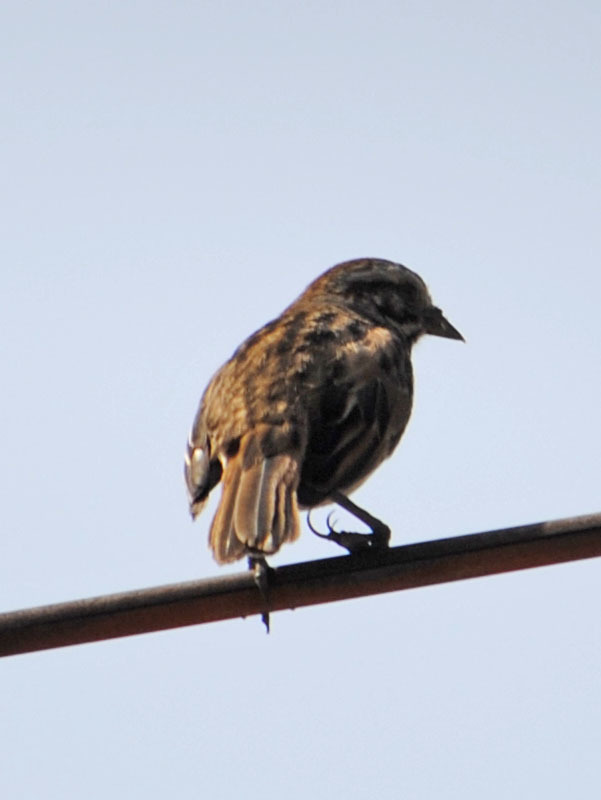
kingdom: Animalia
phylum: Chordata
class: Aves
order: Passeriformes
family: Passerellidae
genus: Melospiza
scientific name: Melospiza melodia
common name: Song sparrow
